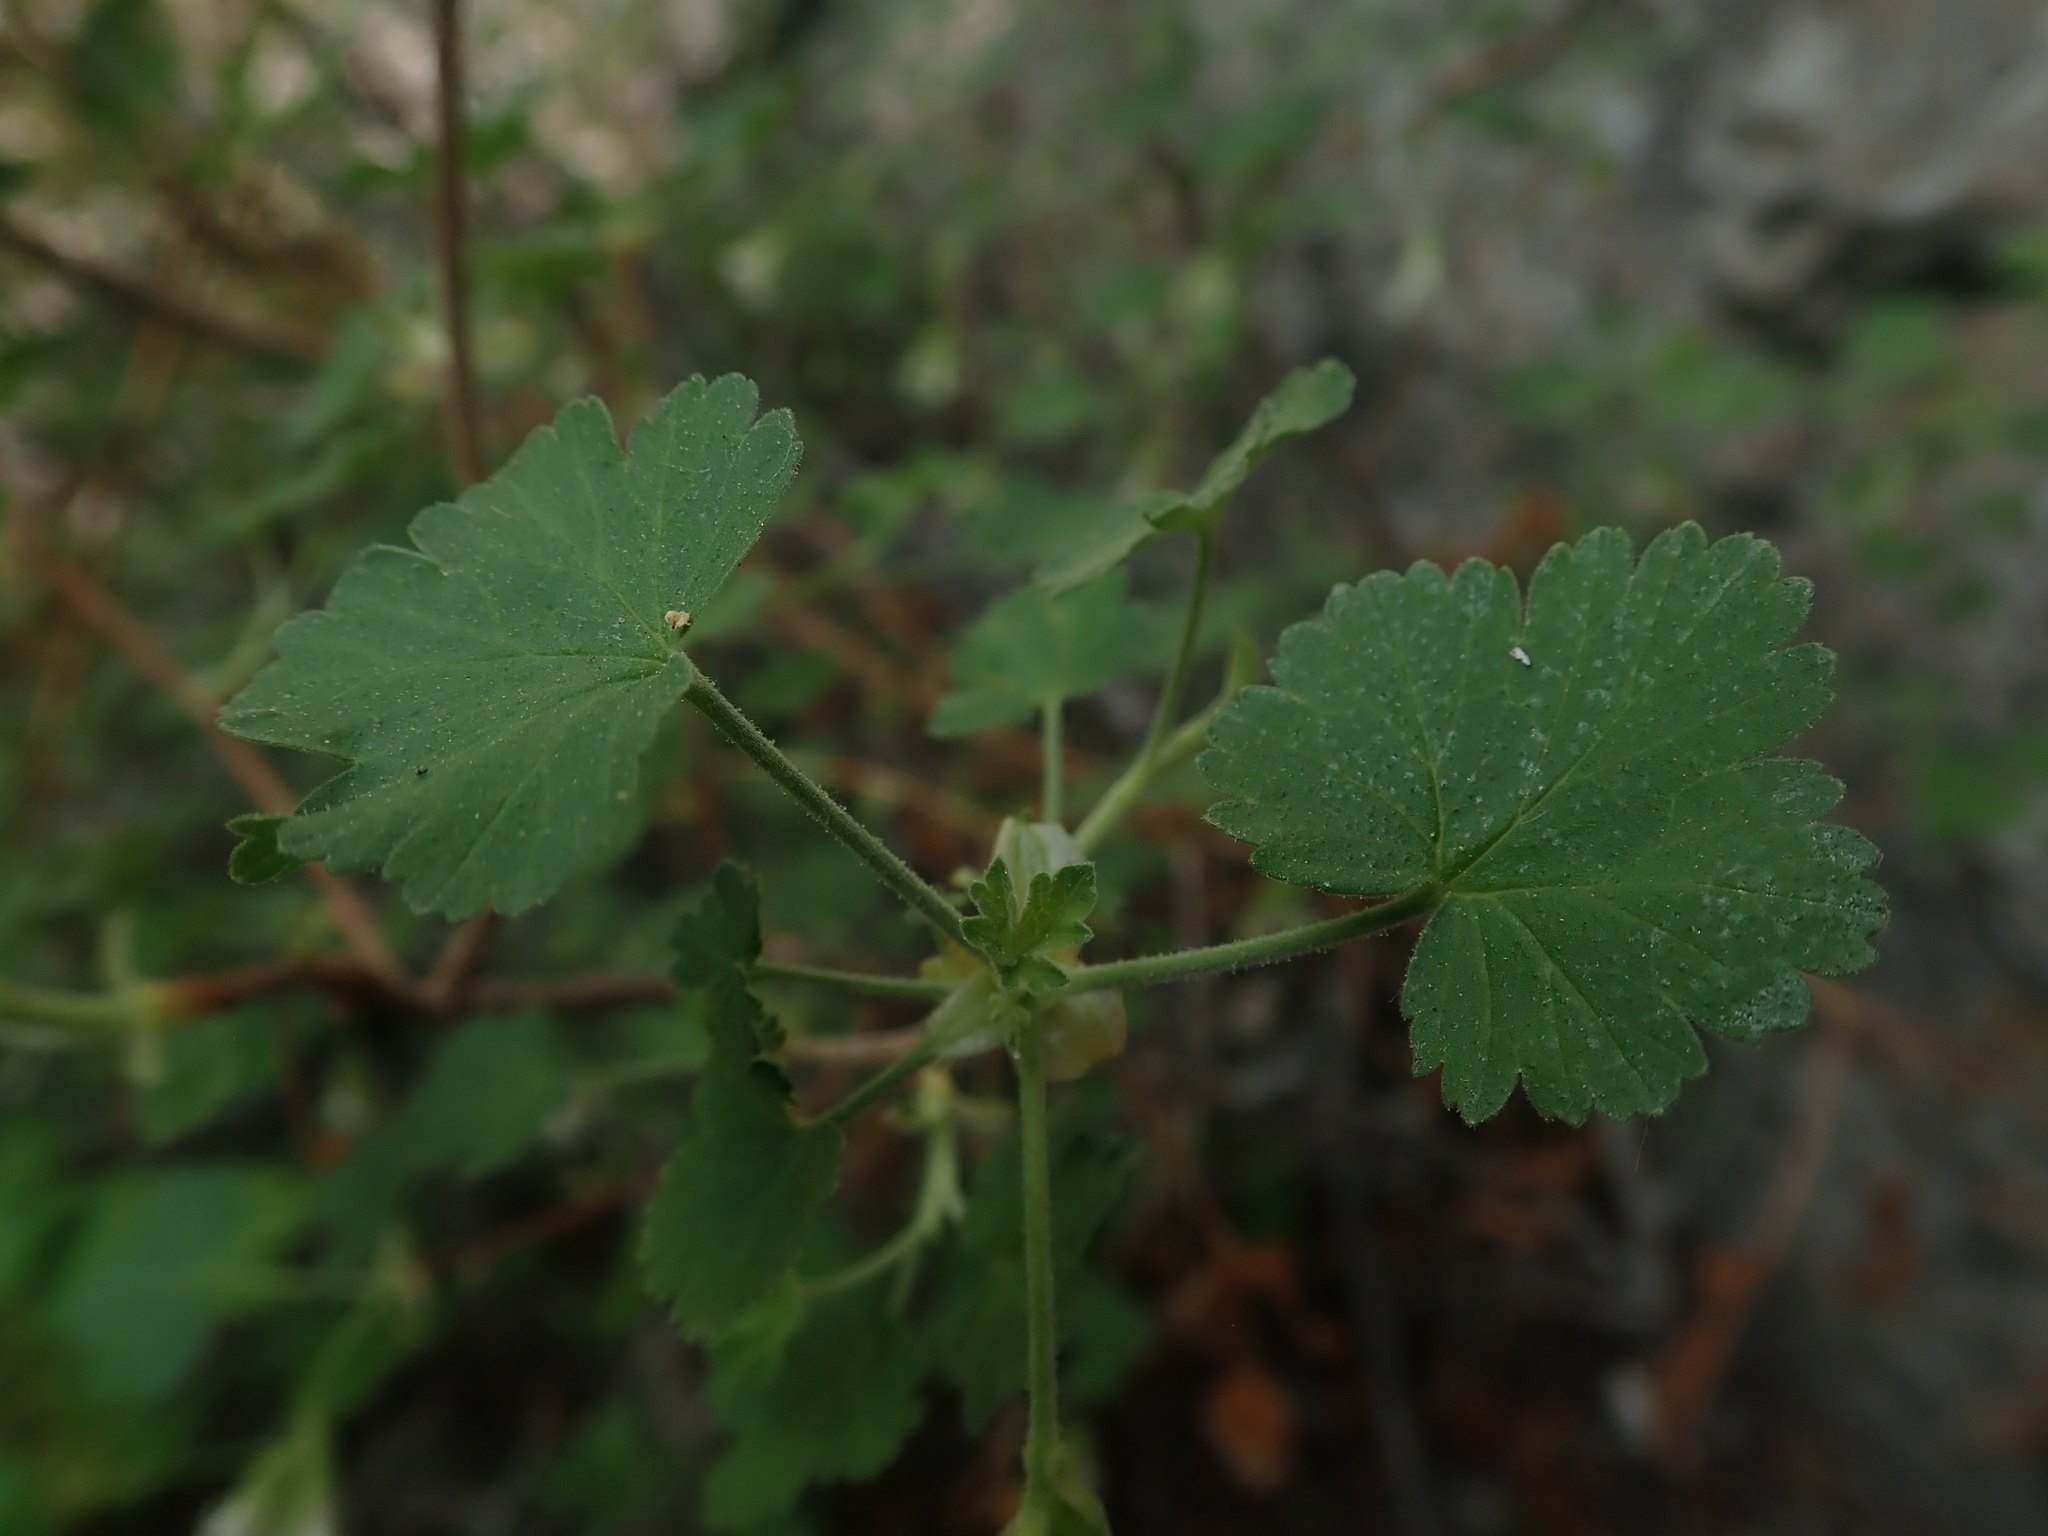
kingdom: Plantae
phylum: Tracheophyta
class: Magnoliopsida
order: Saxifragales
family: Grossulariaceae
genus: Ribes
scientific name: Ribes cereum
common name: Wax currant
